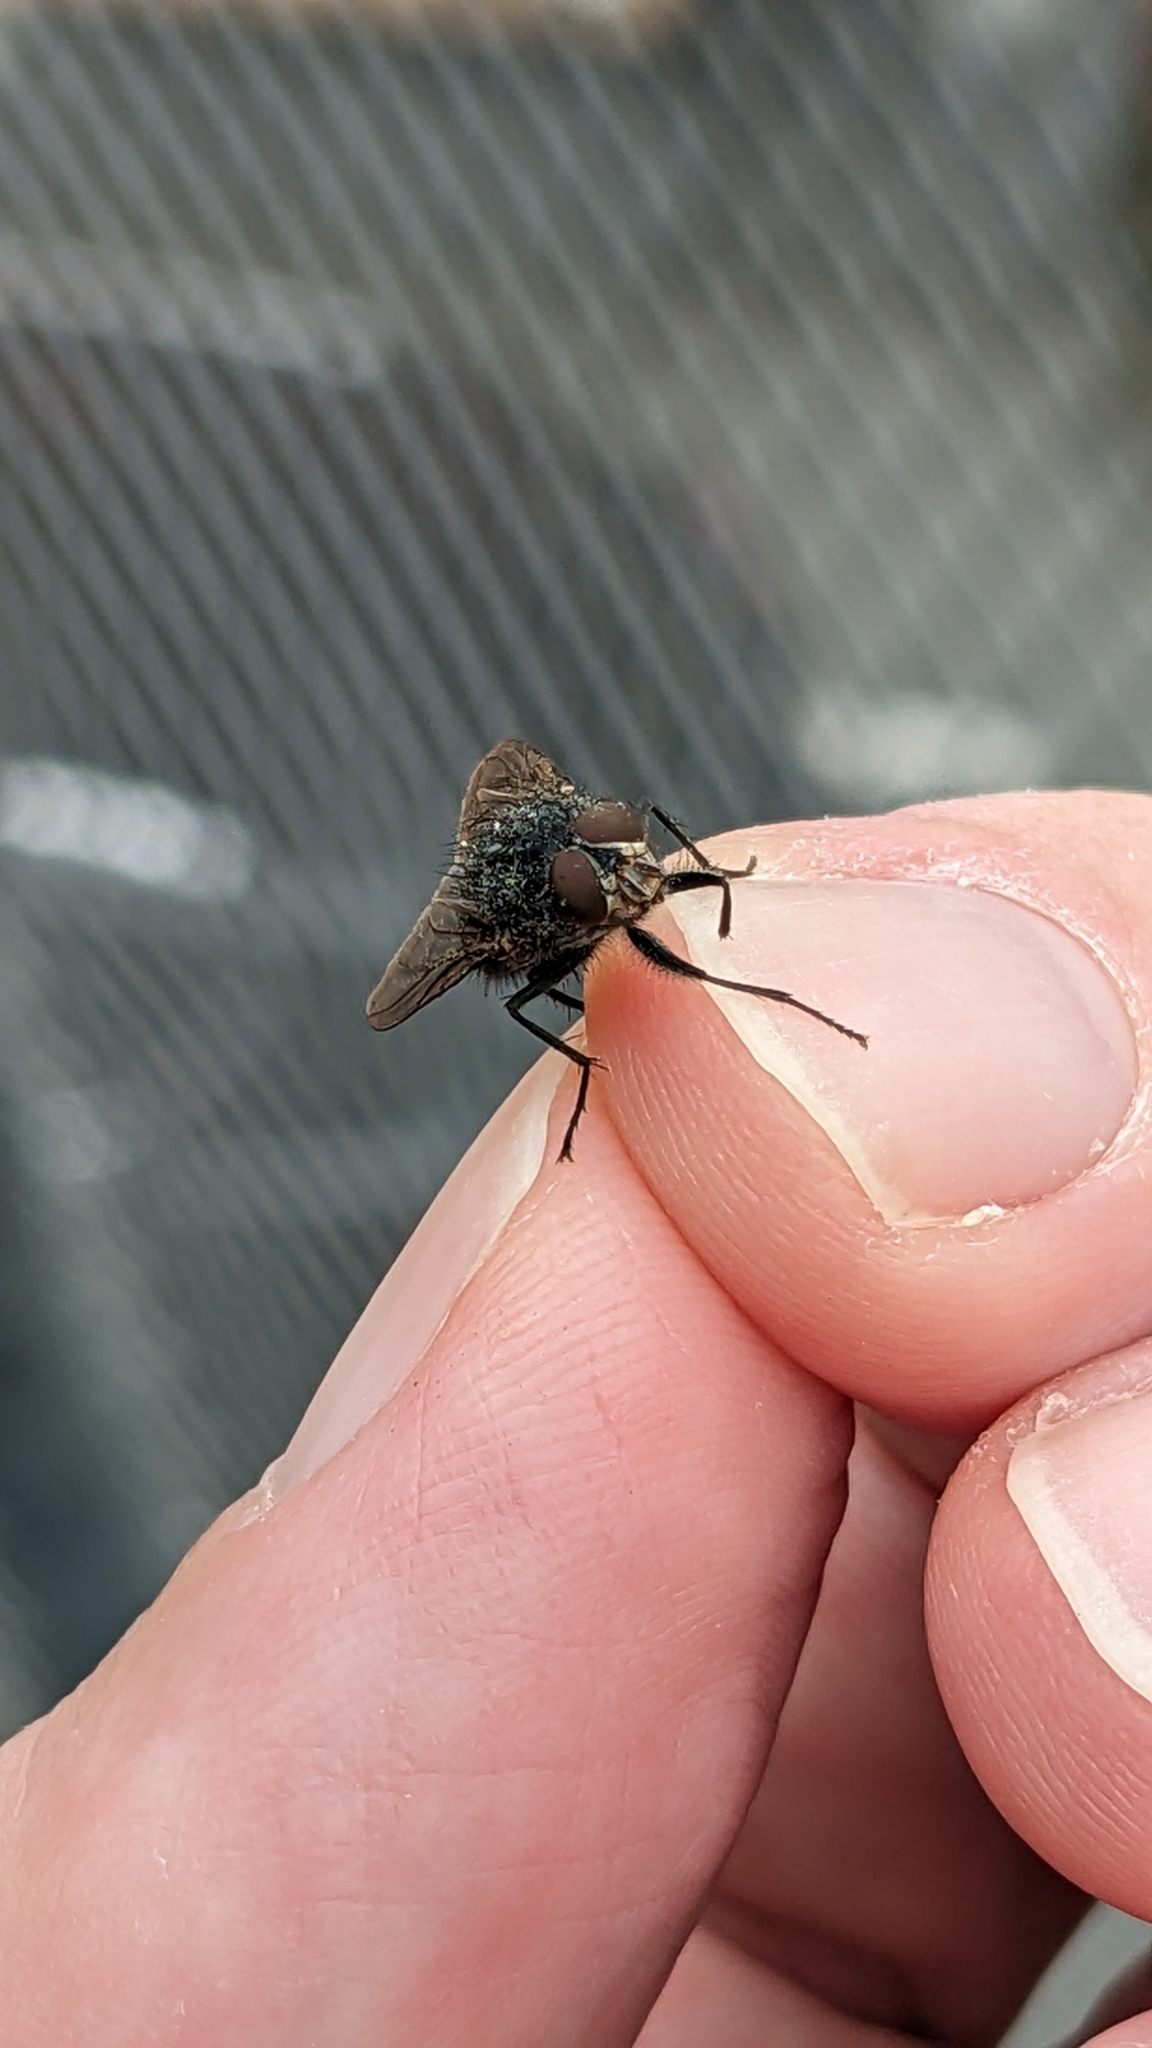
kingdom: Animalia
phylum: Arthropoda
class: Insecta
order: Diptera
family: Calliphoridae
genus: Calliphora
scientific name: Calliphora vicina
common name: Common blow flie
